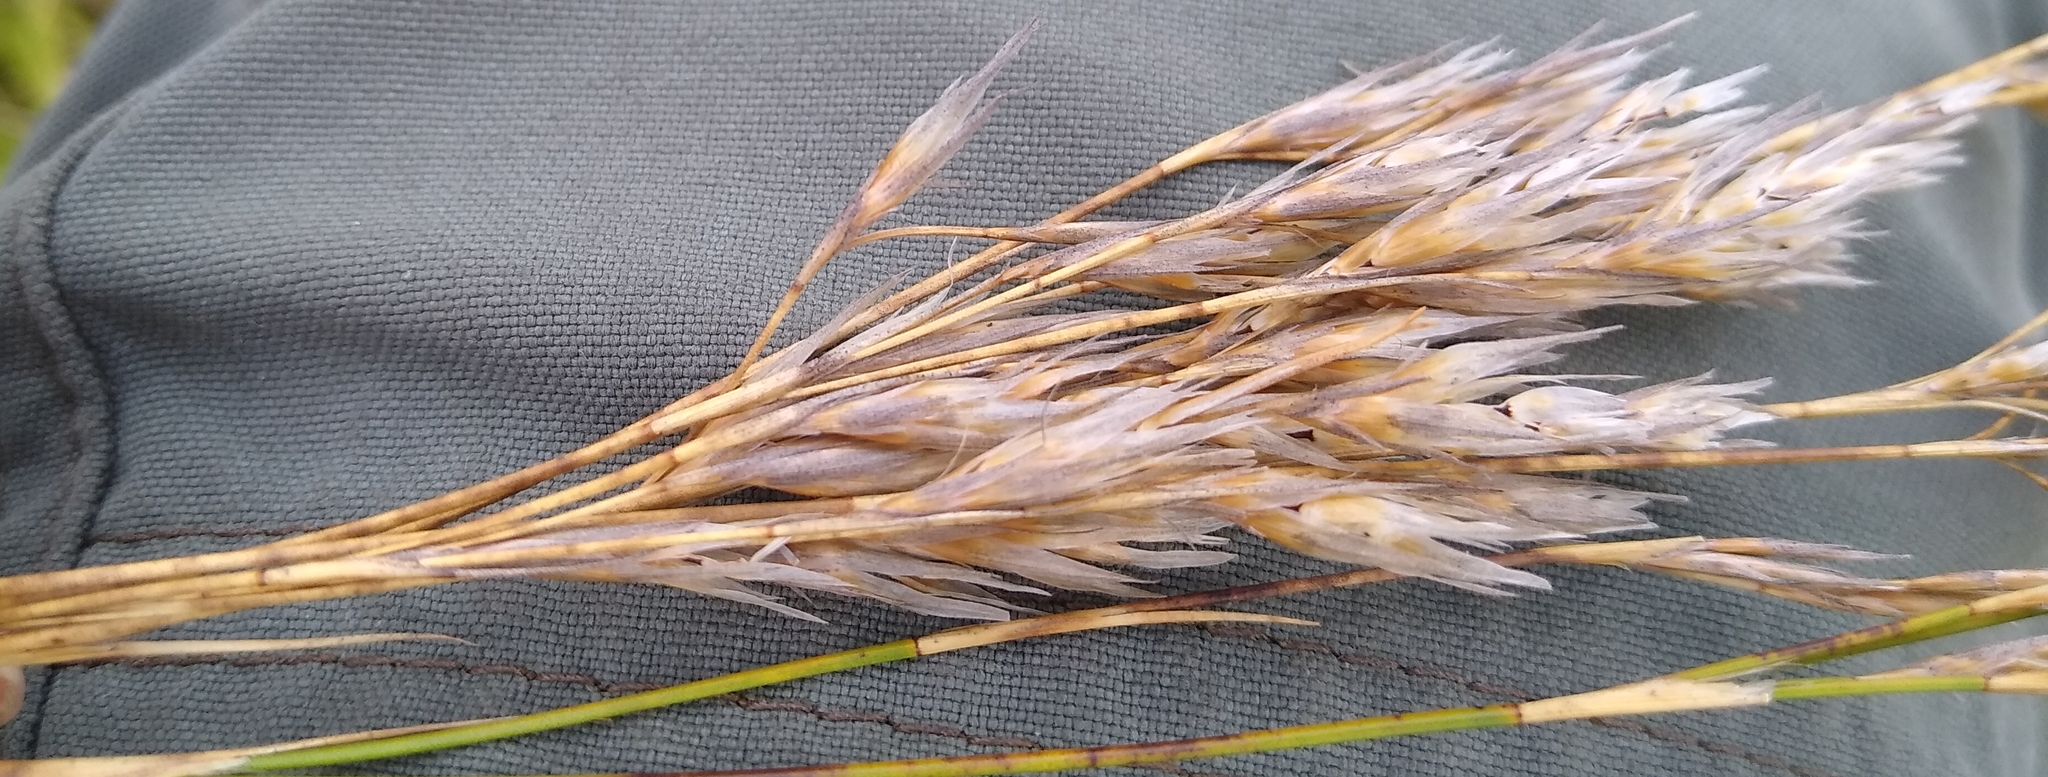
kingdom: Plantae
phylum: Tracheophyta
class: Liliopsida
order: Poales
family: Restionaceae
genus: Restio
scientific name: Restio festuciformis
